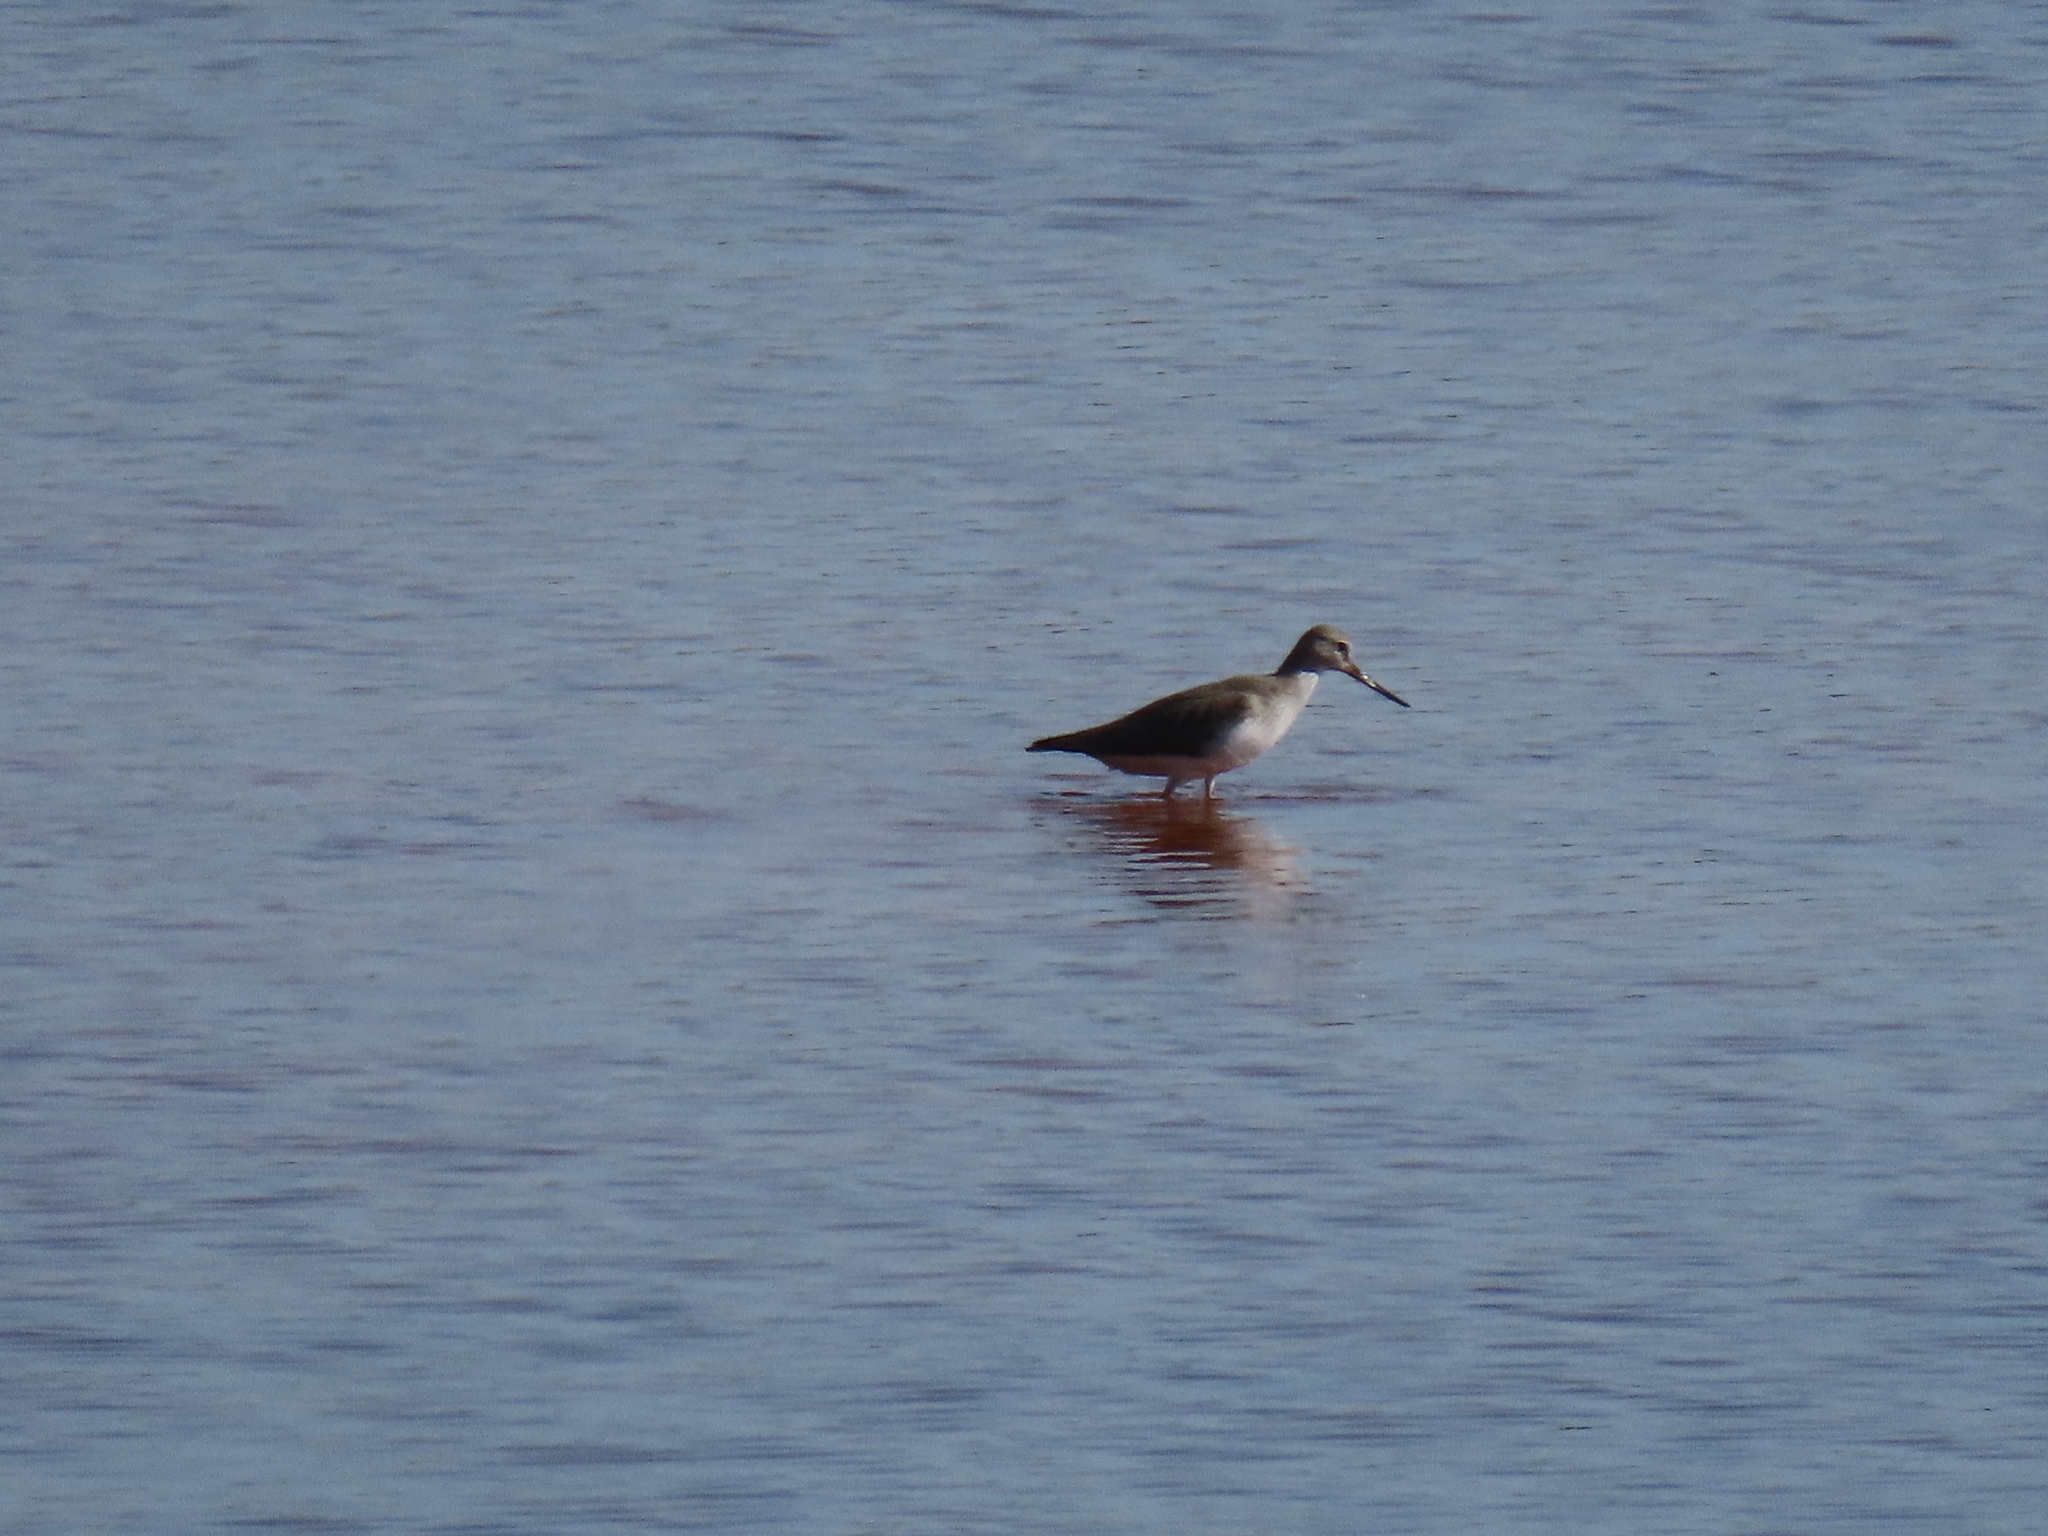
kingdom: Animalia
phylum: Chordata
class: Aves
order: Charadriiformes
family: Scolopacidae
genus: Xenus
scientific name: Xenus cinereus
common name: Terek sandpiper
